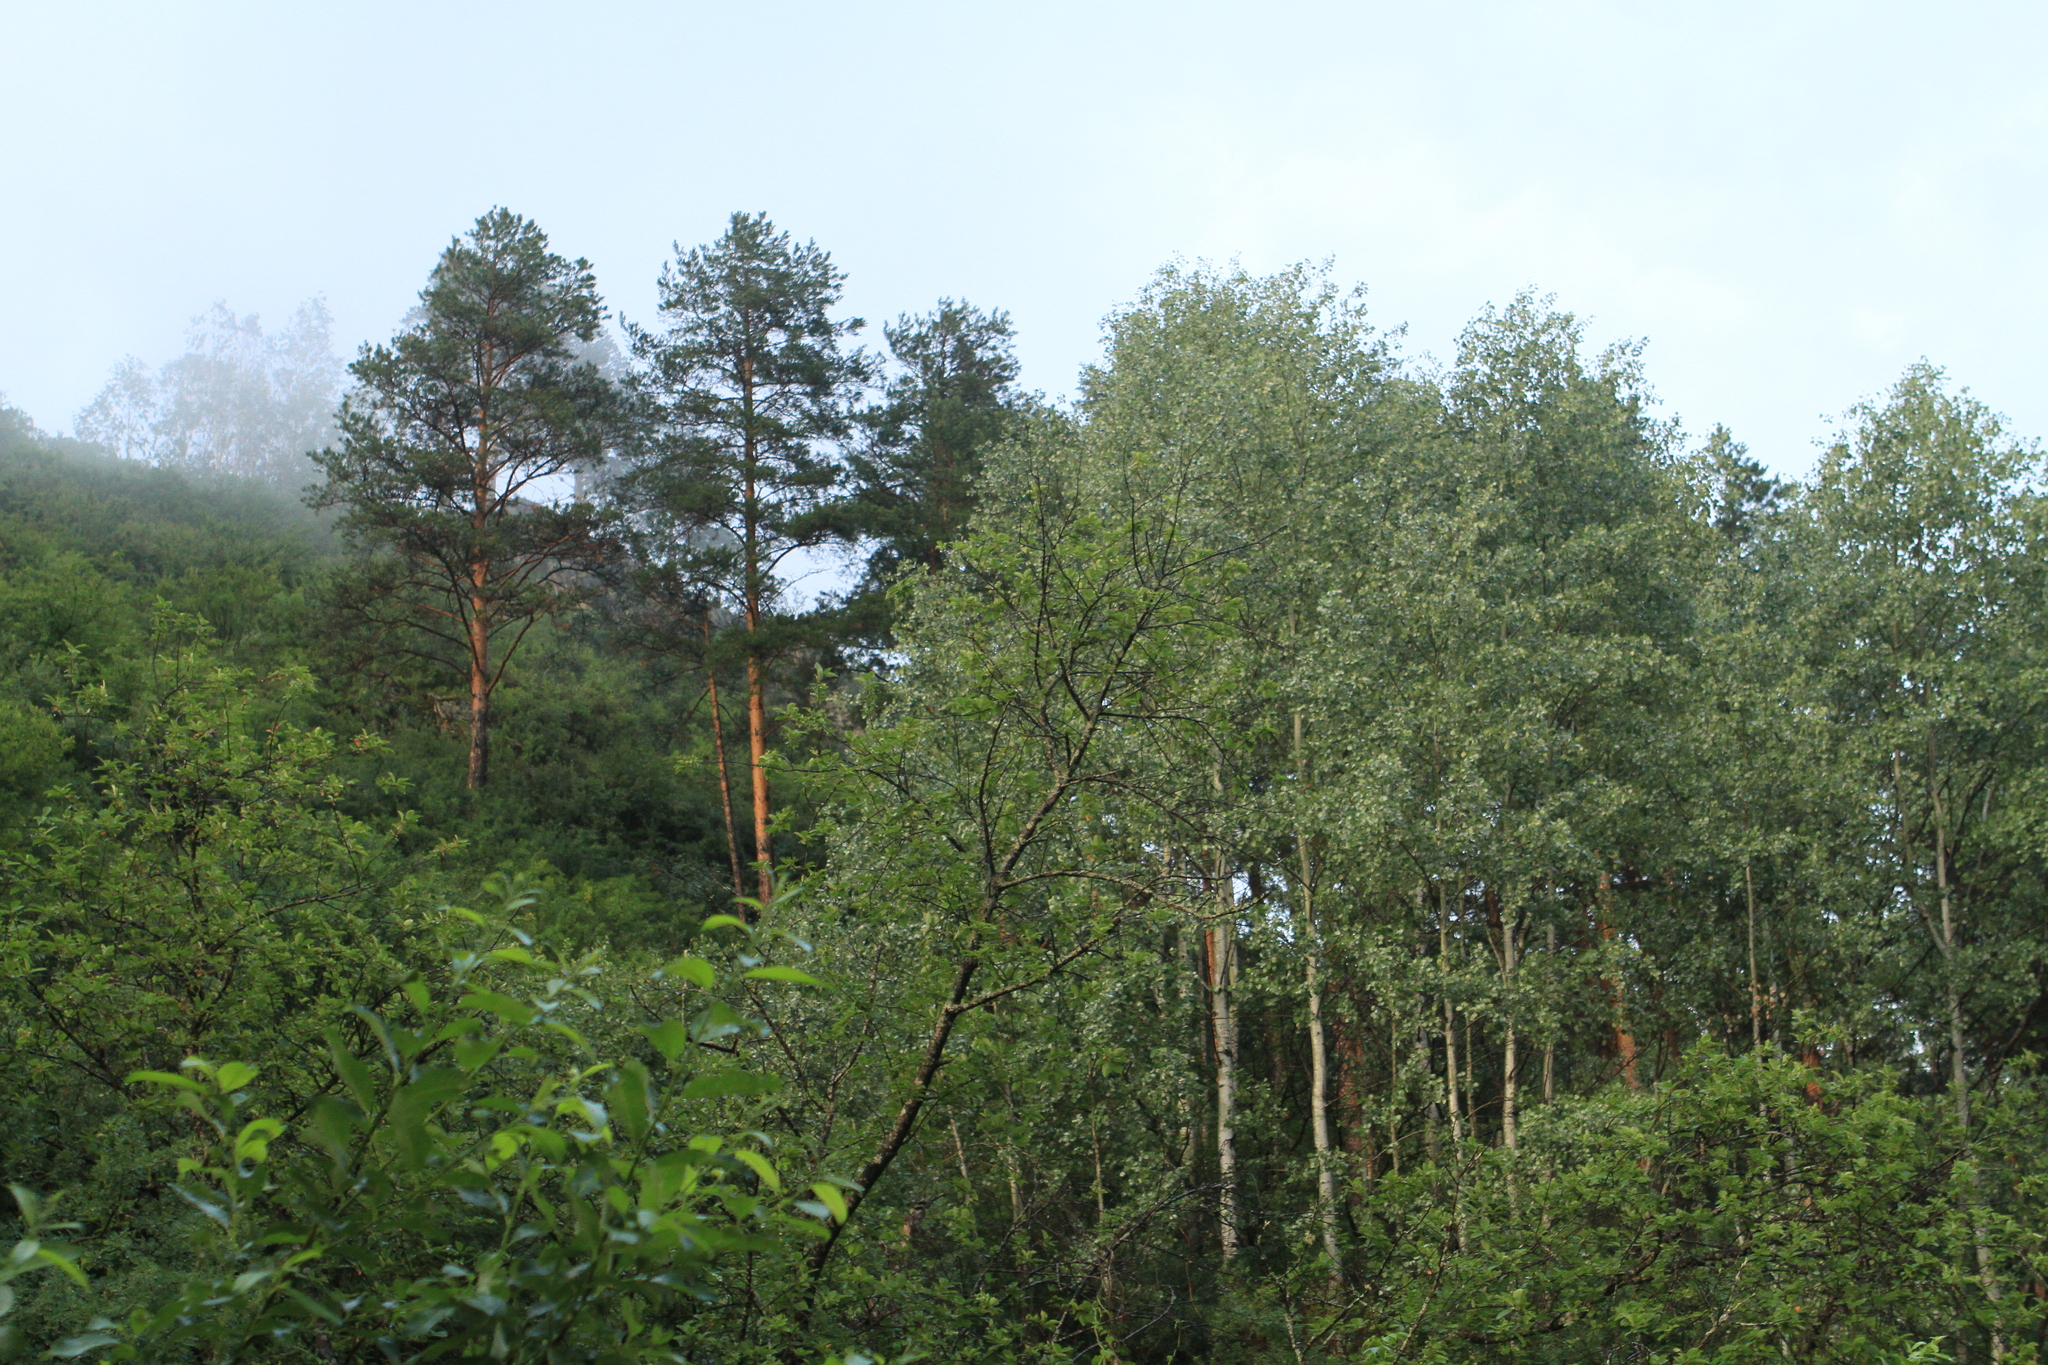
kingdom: Plantae
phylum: Tracheophyta
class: Magnoliopsida
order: Malpighiales
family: Salicaceae
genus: Populus
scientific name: Populus tremula
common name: European aspen
